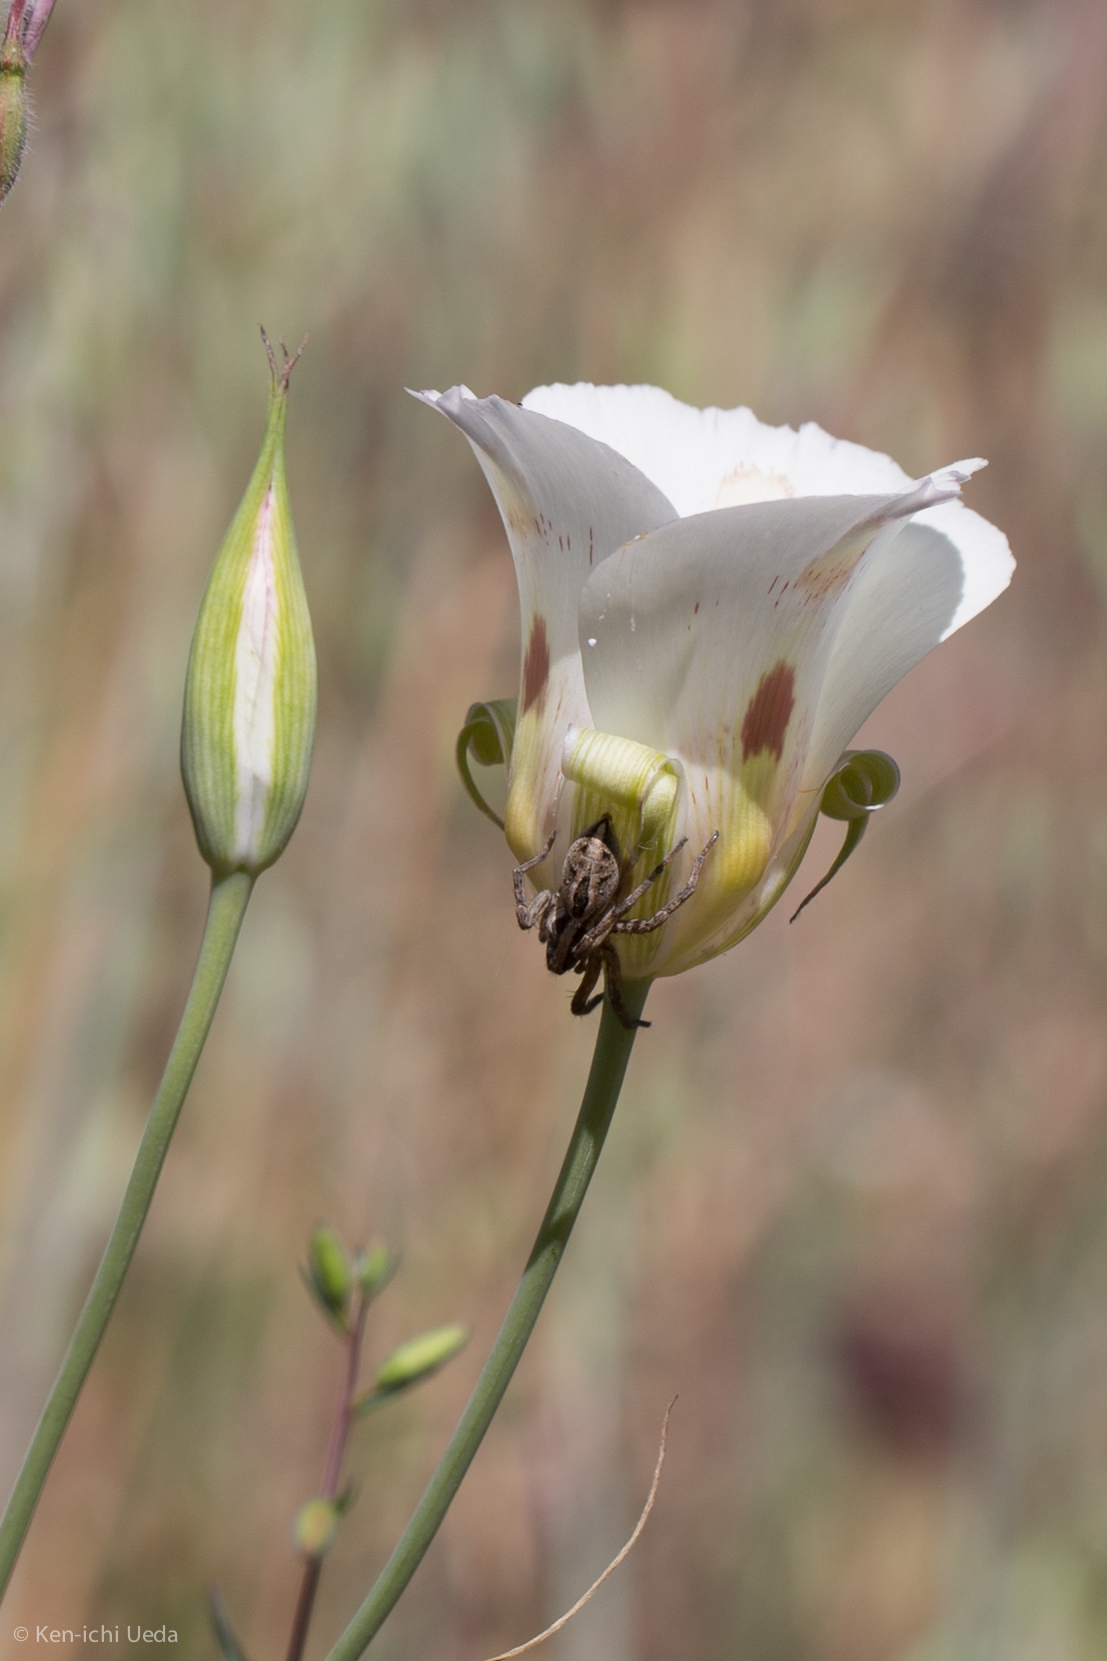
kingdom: Plantae
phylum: Tracheophyta
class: Liliopsida
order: Liliales
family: Liliaceae
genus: Calochortus
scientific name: Calochortus venustus
